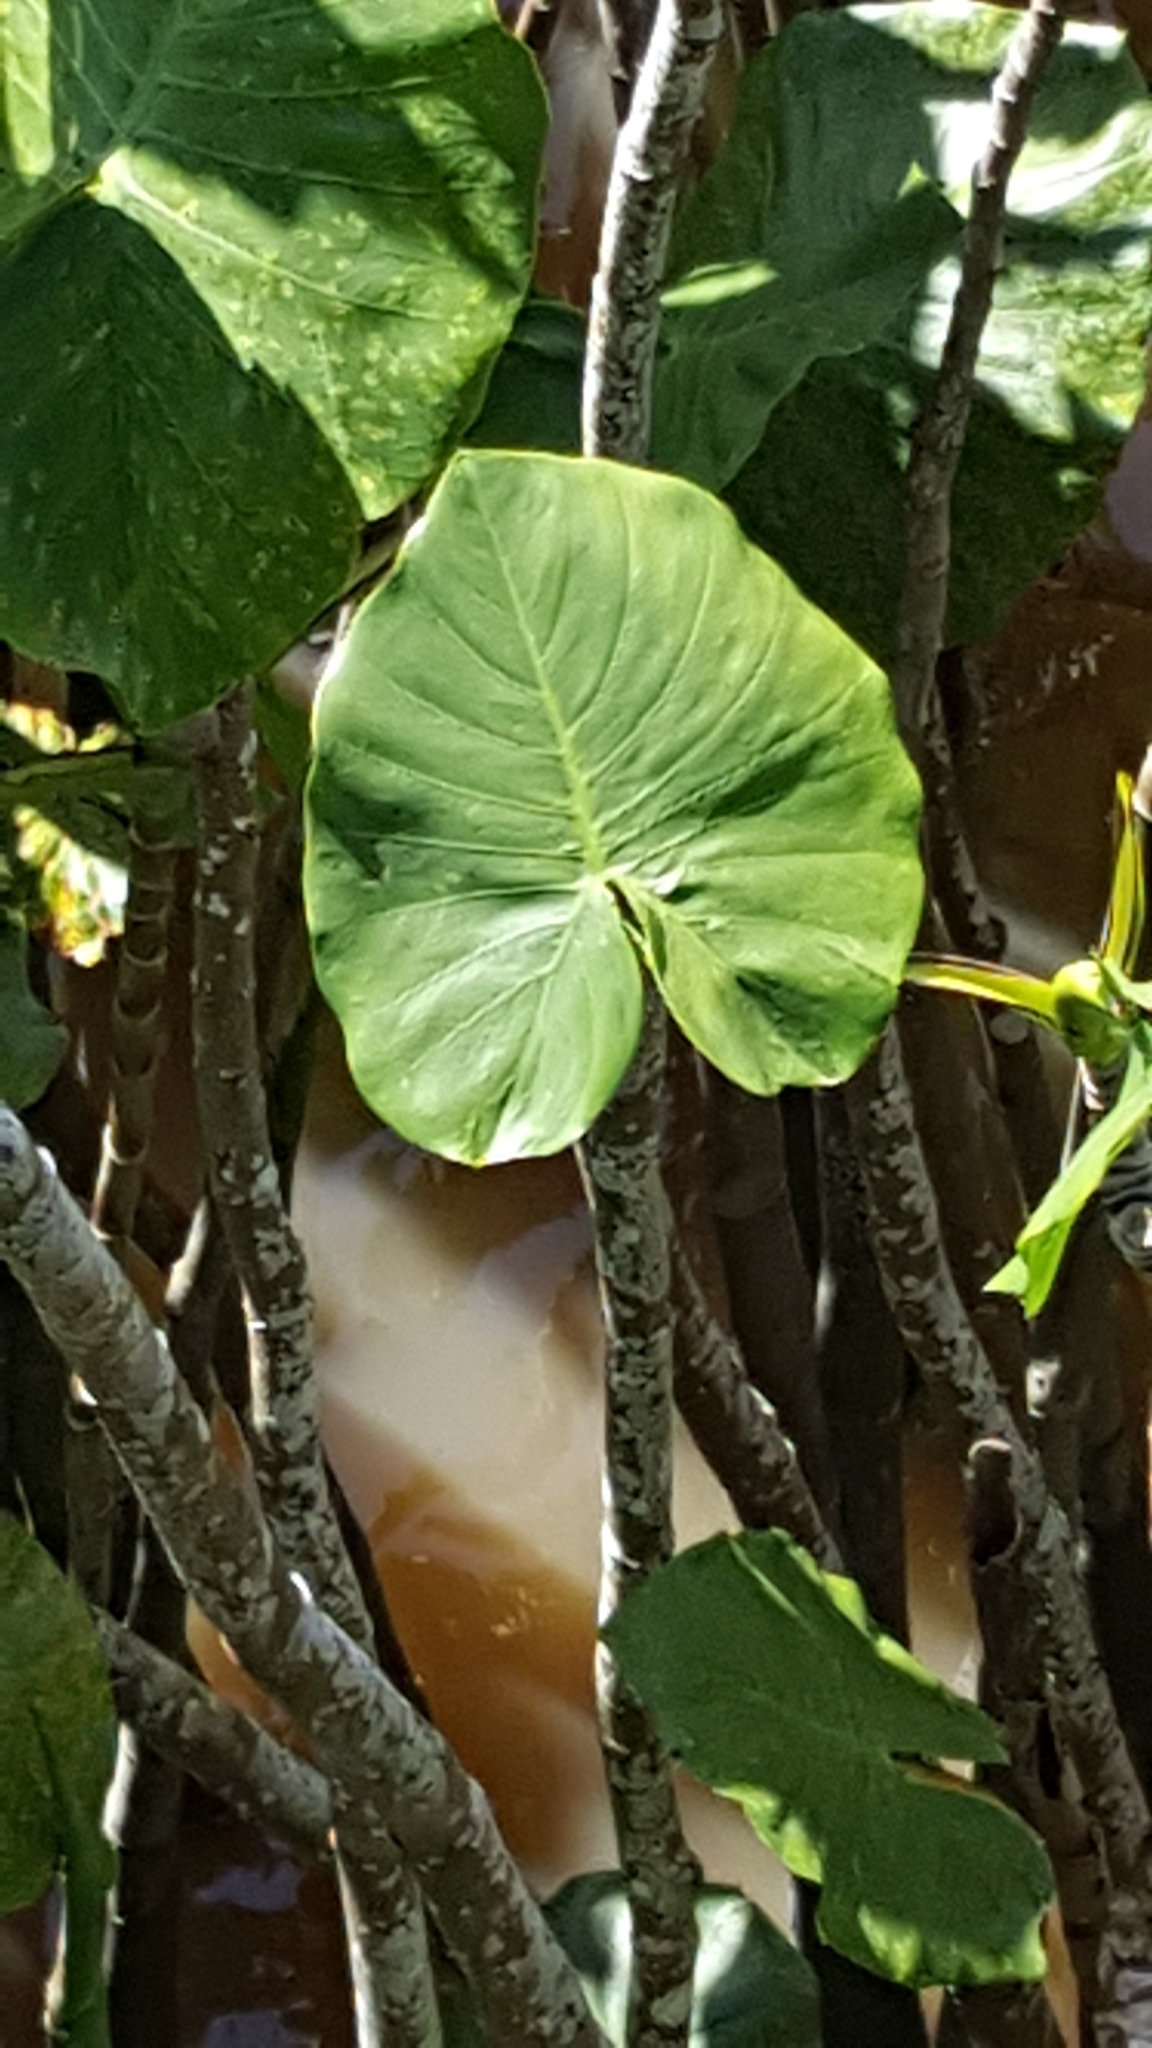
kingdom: Plantae
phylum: Tracheophyta
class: Liliopsida
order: Alismatales
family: Araceae
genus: Montrichardia
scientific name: Montrichardia linifera
